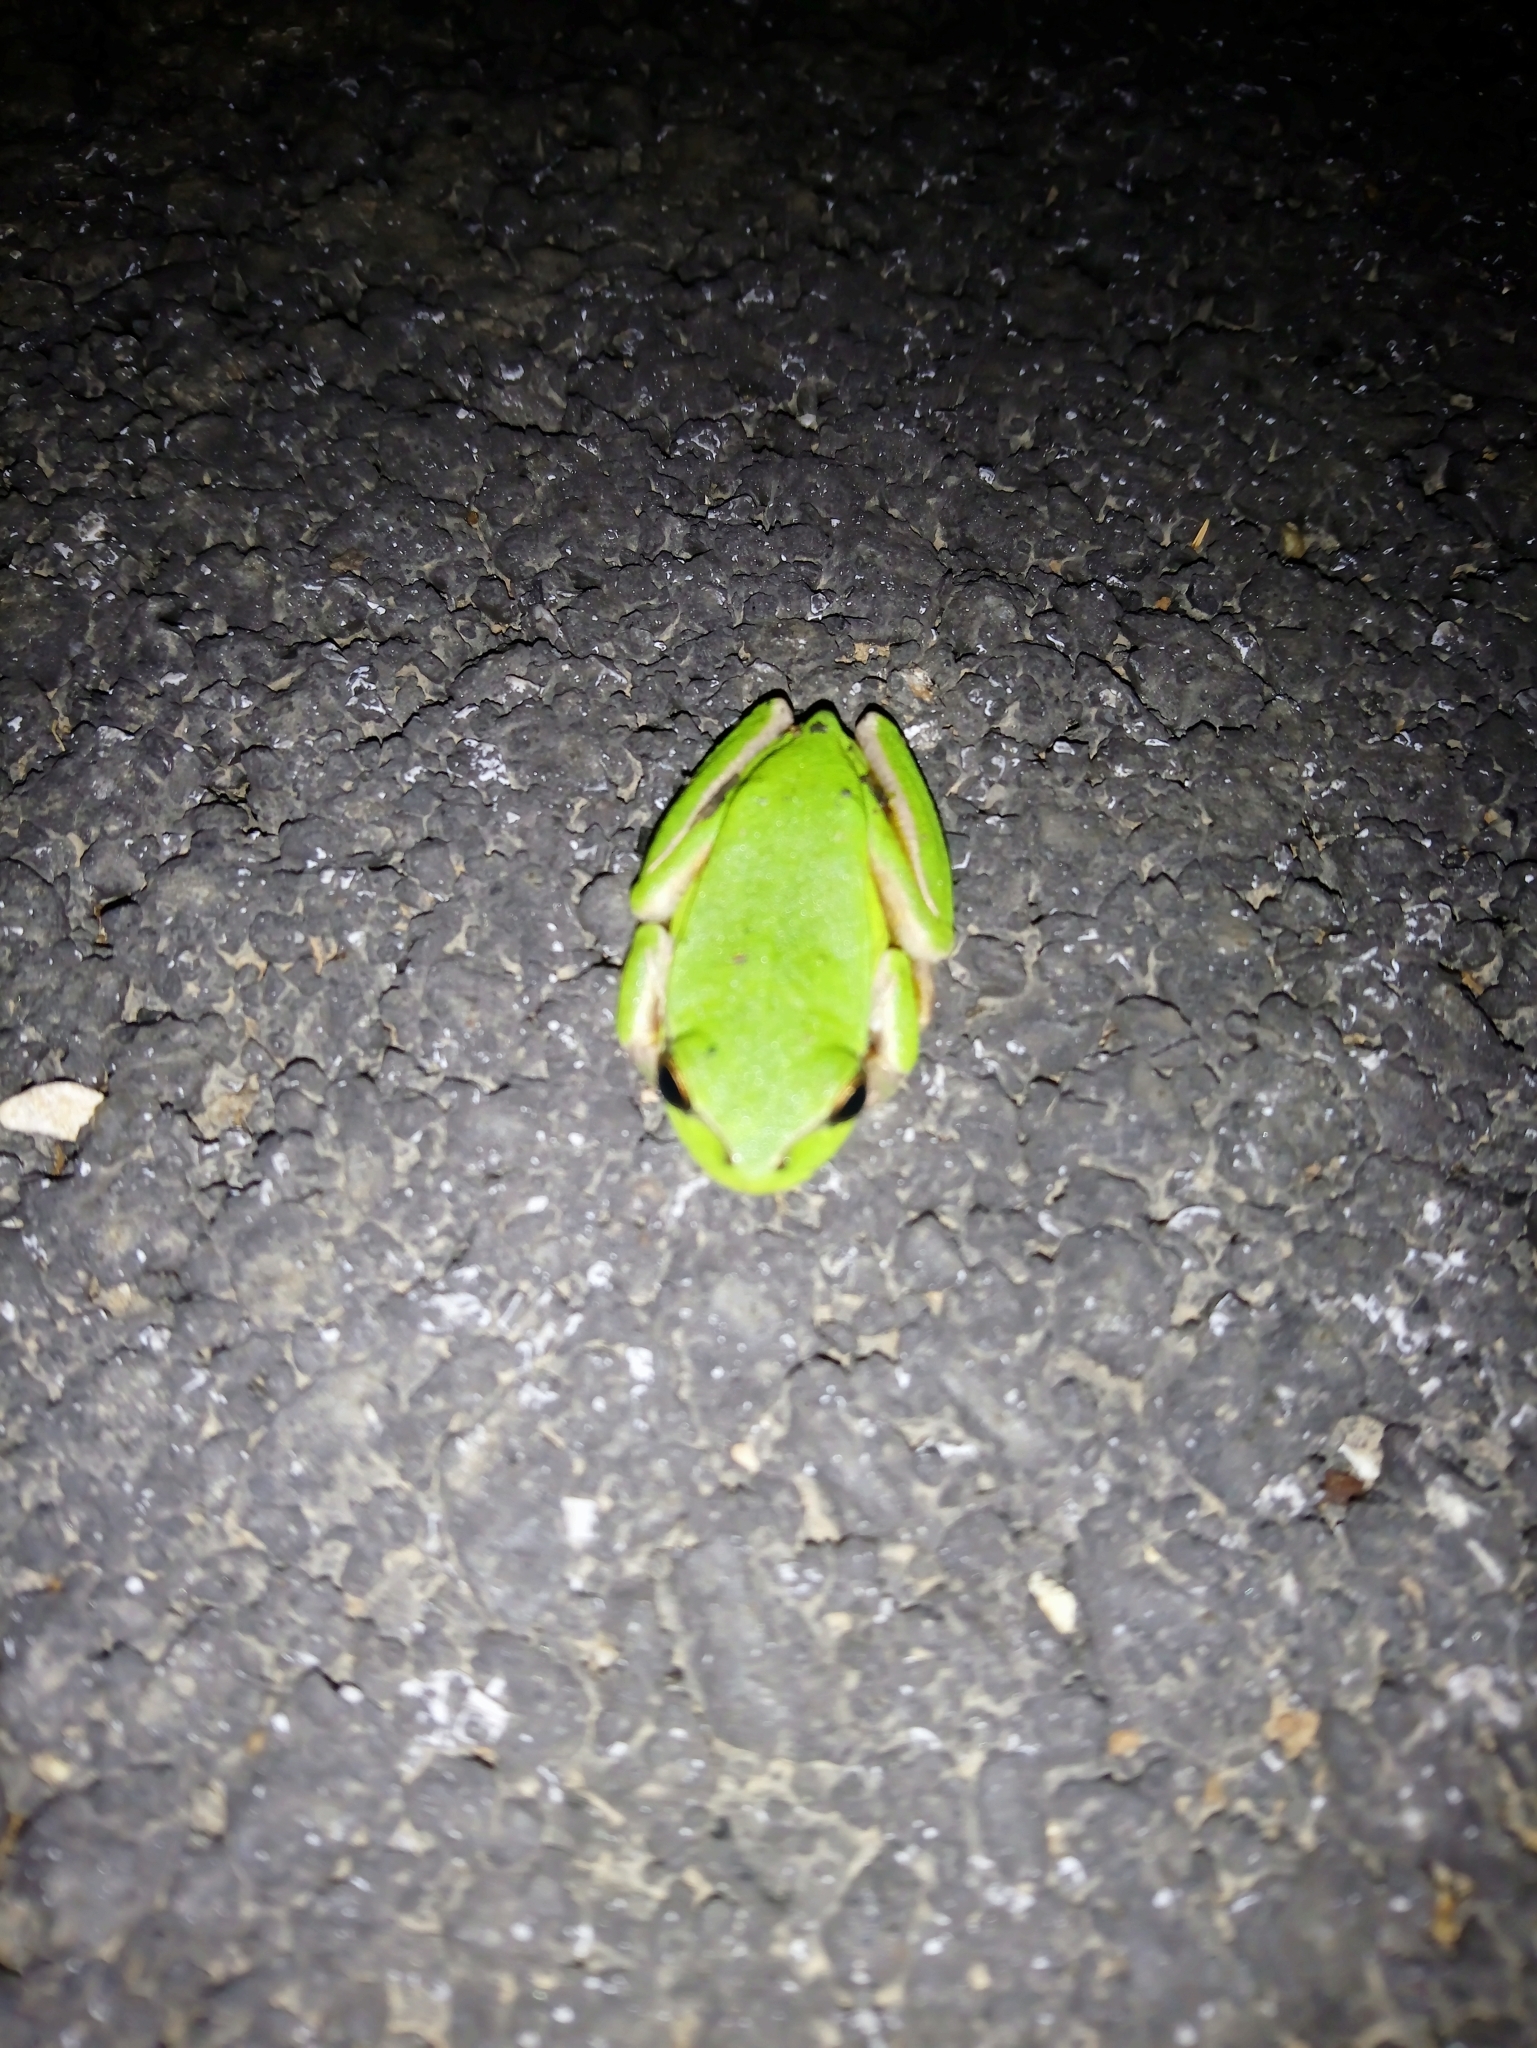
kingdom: Animalia
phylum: Chordata
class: Amphibia
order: Anura
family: Hylidae
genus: Hyla
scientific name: Hyla meridionalis
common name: Stripeless tree frog
